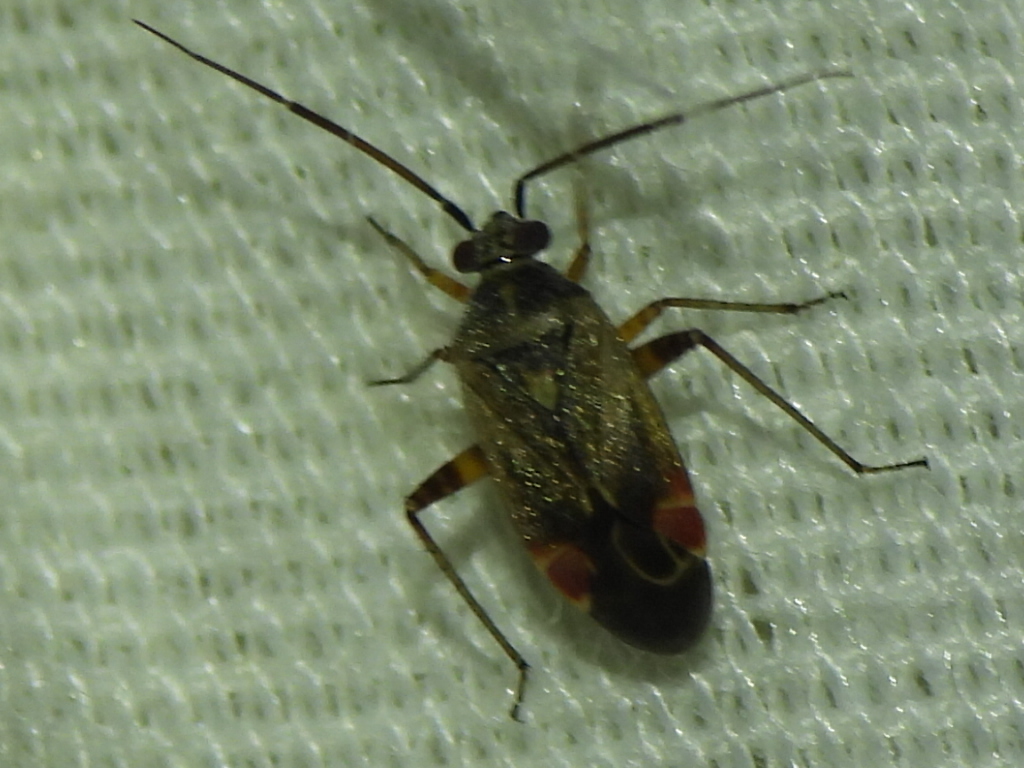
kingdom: Animalia
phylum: Arthropoda
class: Insecta
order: Hemiptera
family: Miridae
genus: Polymerus
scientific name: Polymerus basalis
